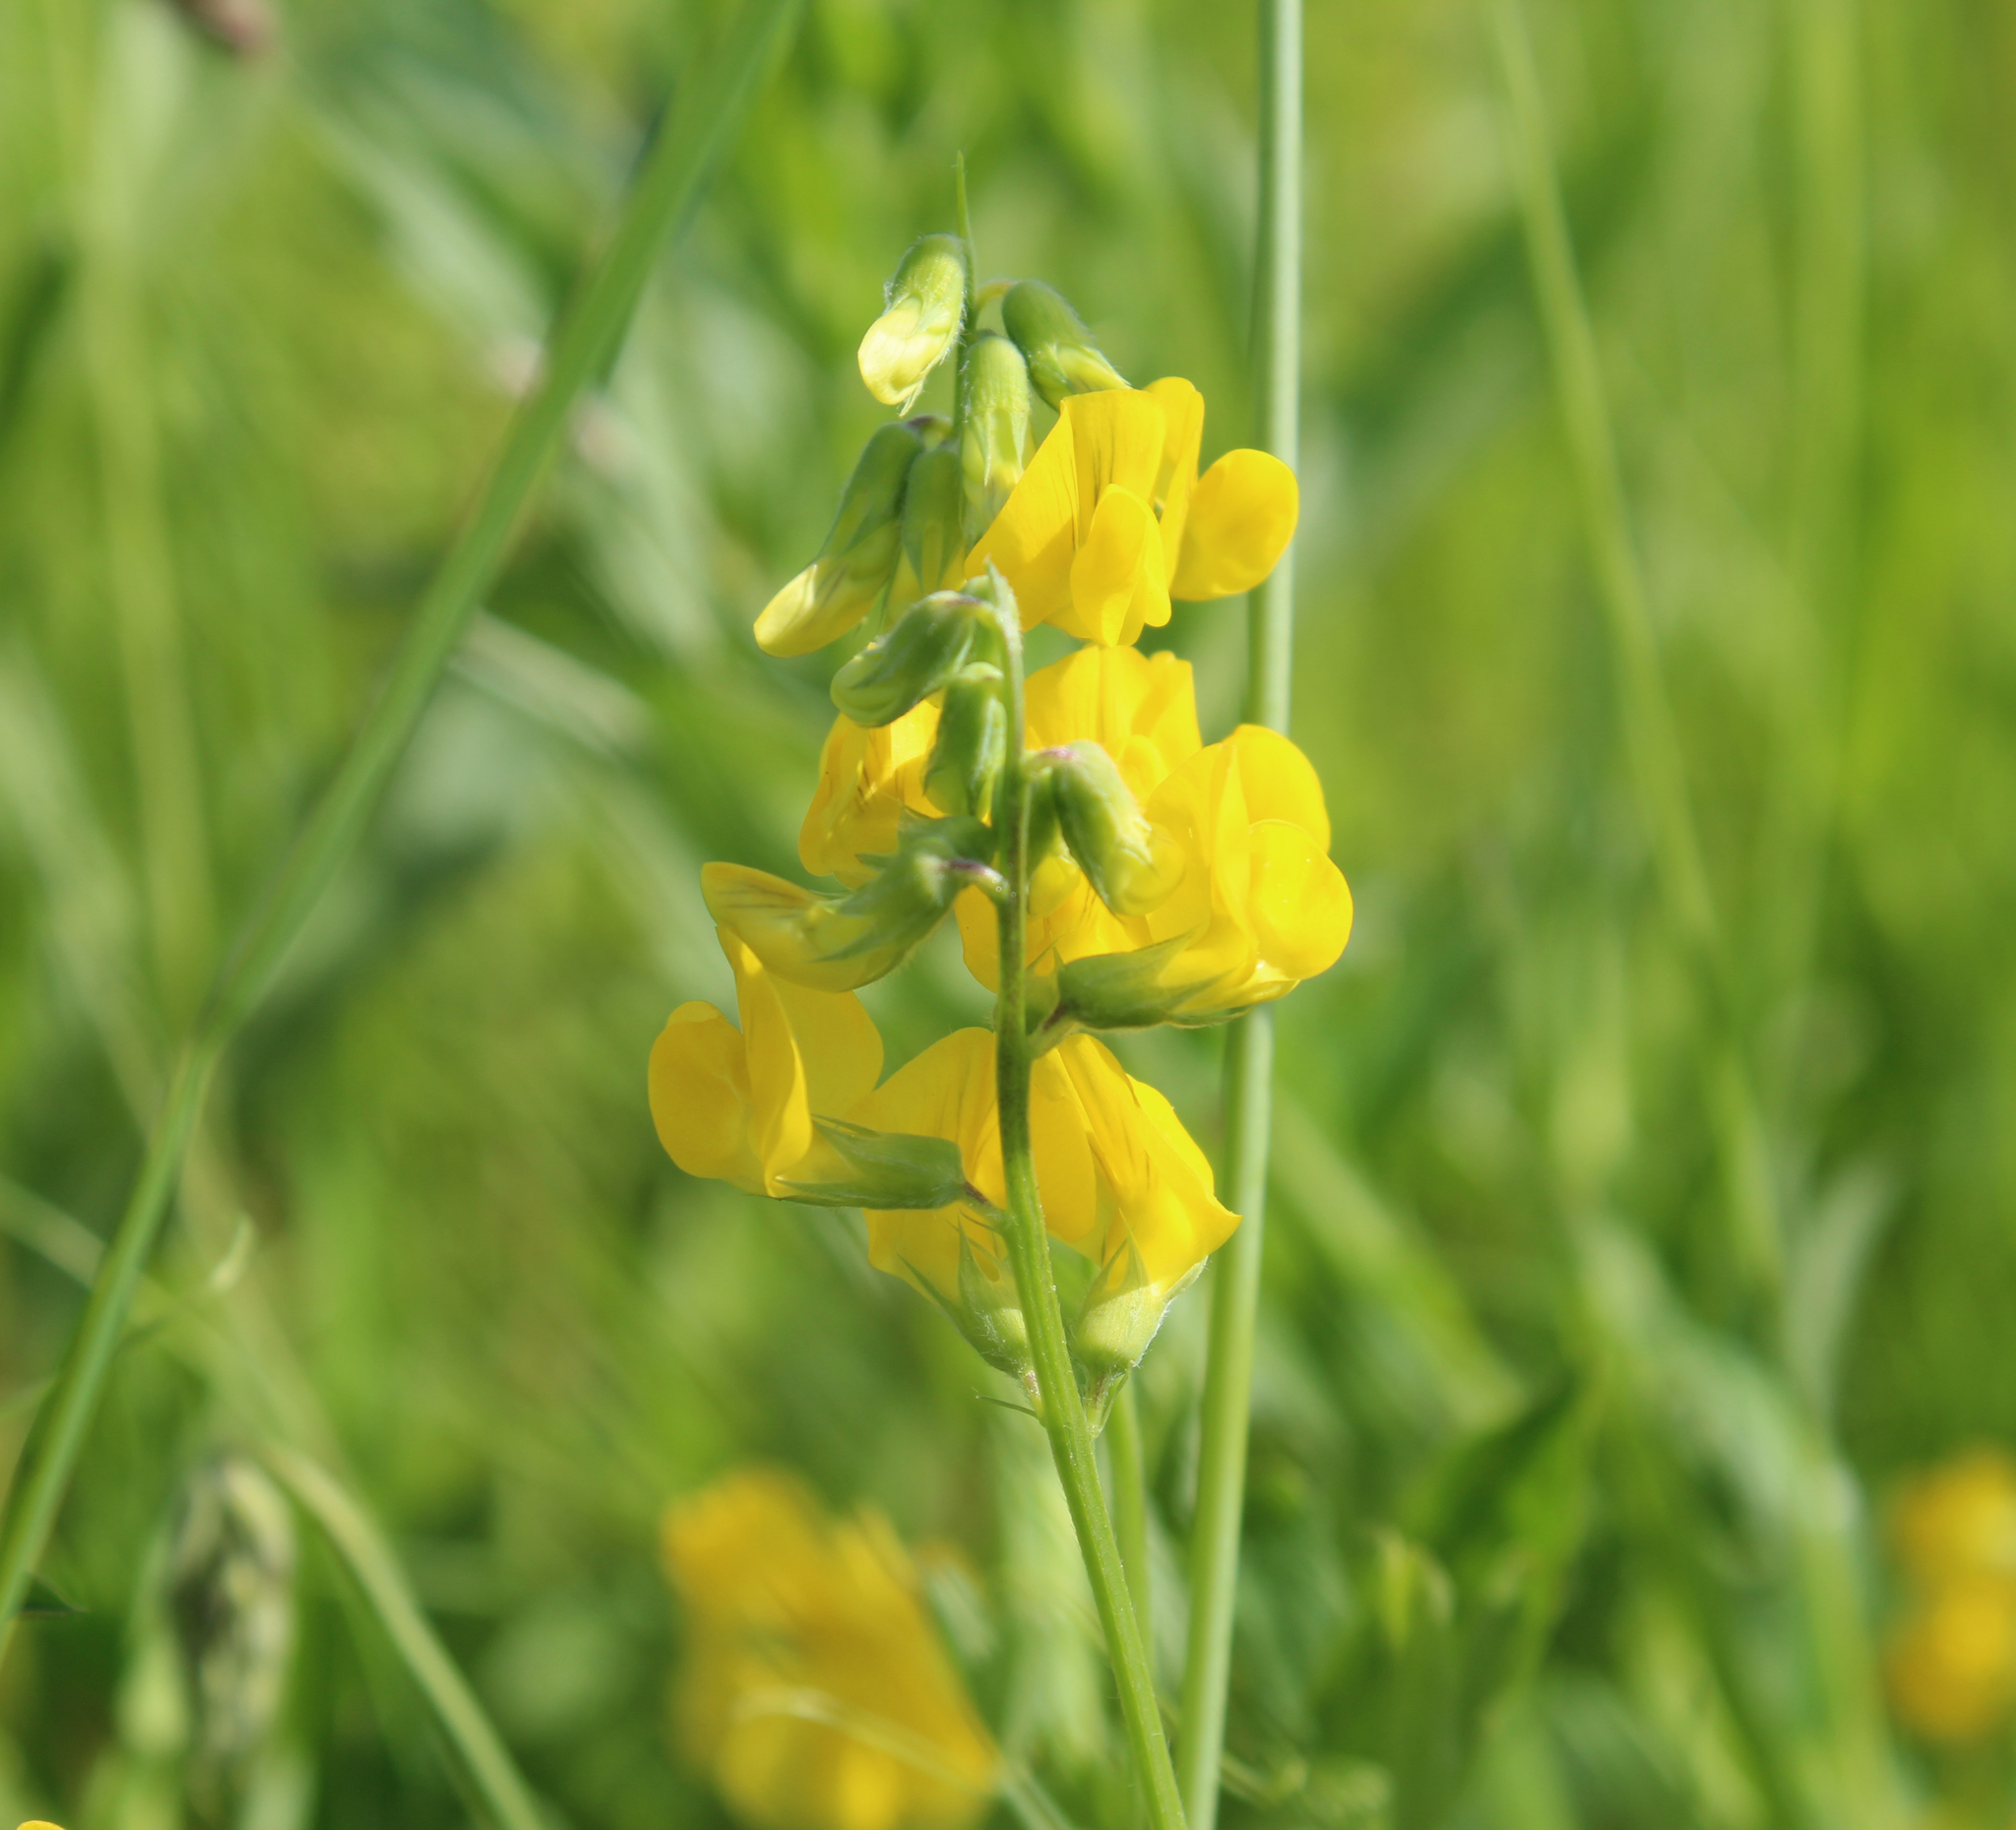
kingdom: Plantae
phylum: Tracheophyta
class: Magnoliopsida
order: Fabales
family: Fabaceae
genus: Lathyrus
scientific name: Lathyrus pratensis
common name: Meadow vetchling
